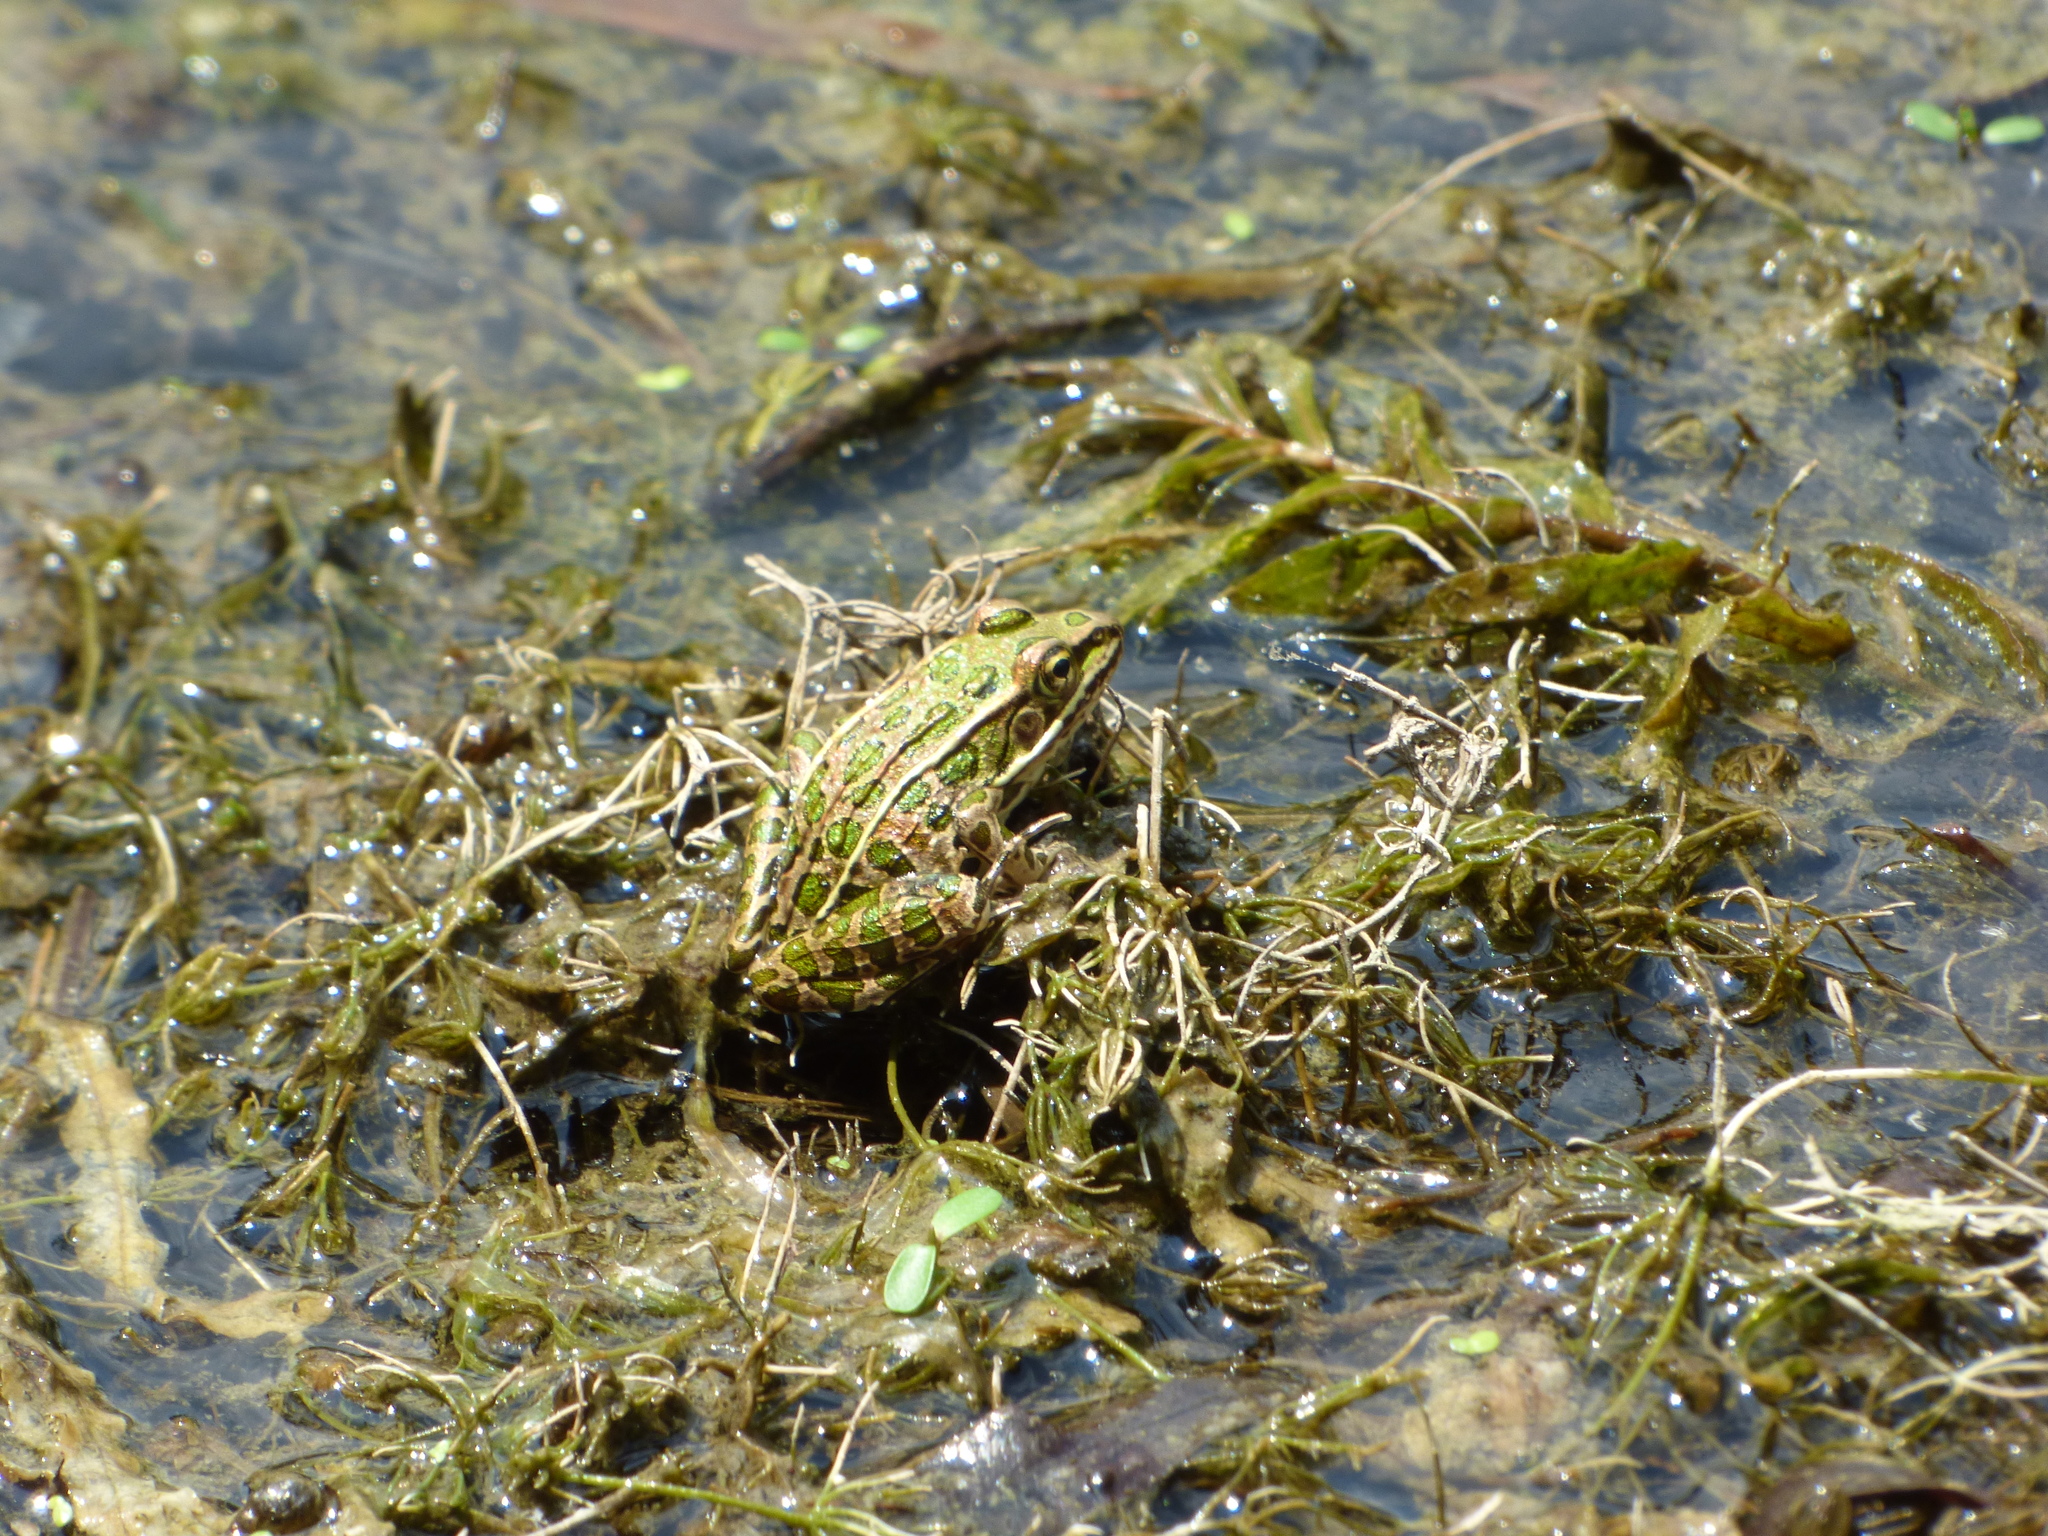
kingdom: Animalia
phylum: Chordata
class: Amphibia
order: Anura
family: Ranidae
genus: Lithobates
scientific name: Lithobates pipiens
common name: Northern leopard frog
